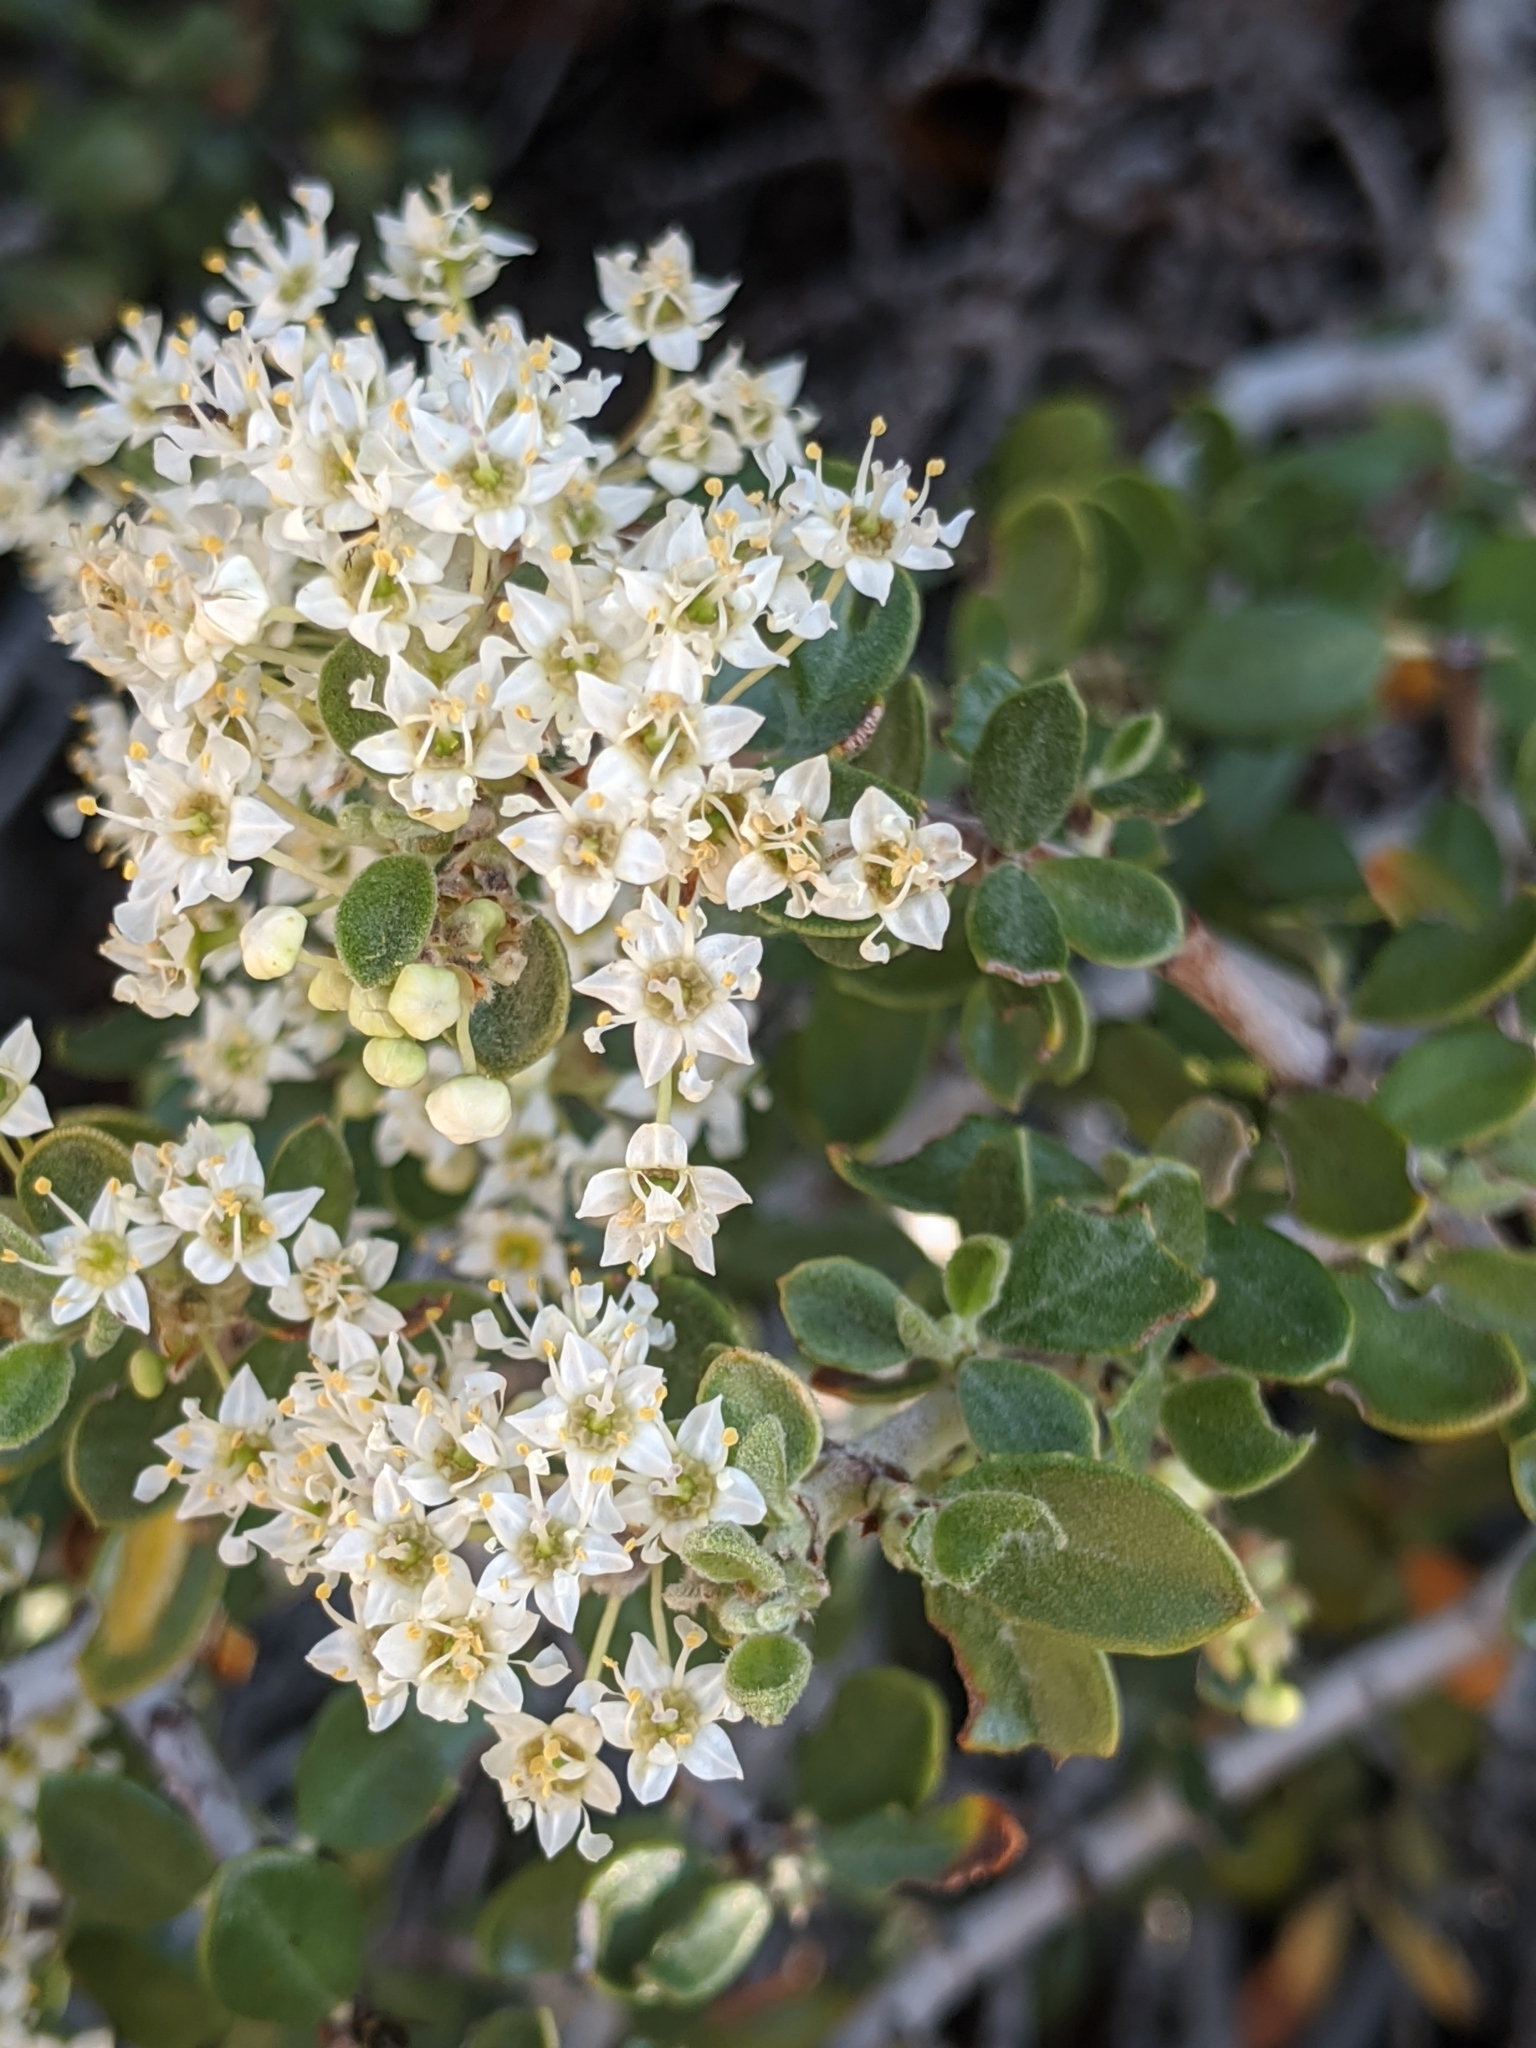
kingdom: Plantae
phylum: Tracheophyta
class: Magnoliopsida
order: Rosales
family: Rhamnaceae
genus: Ceanothus
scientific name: Ceanothus pauciflorus
